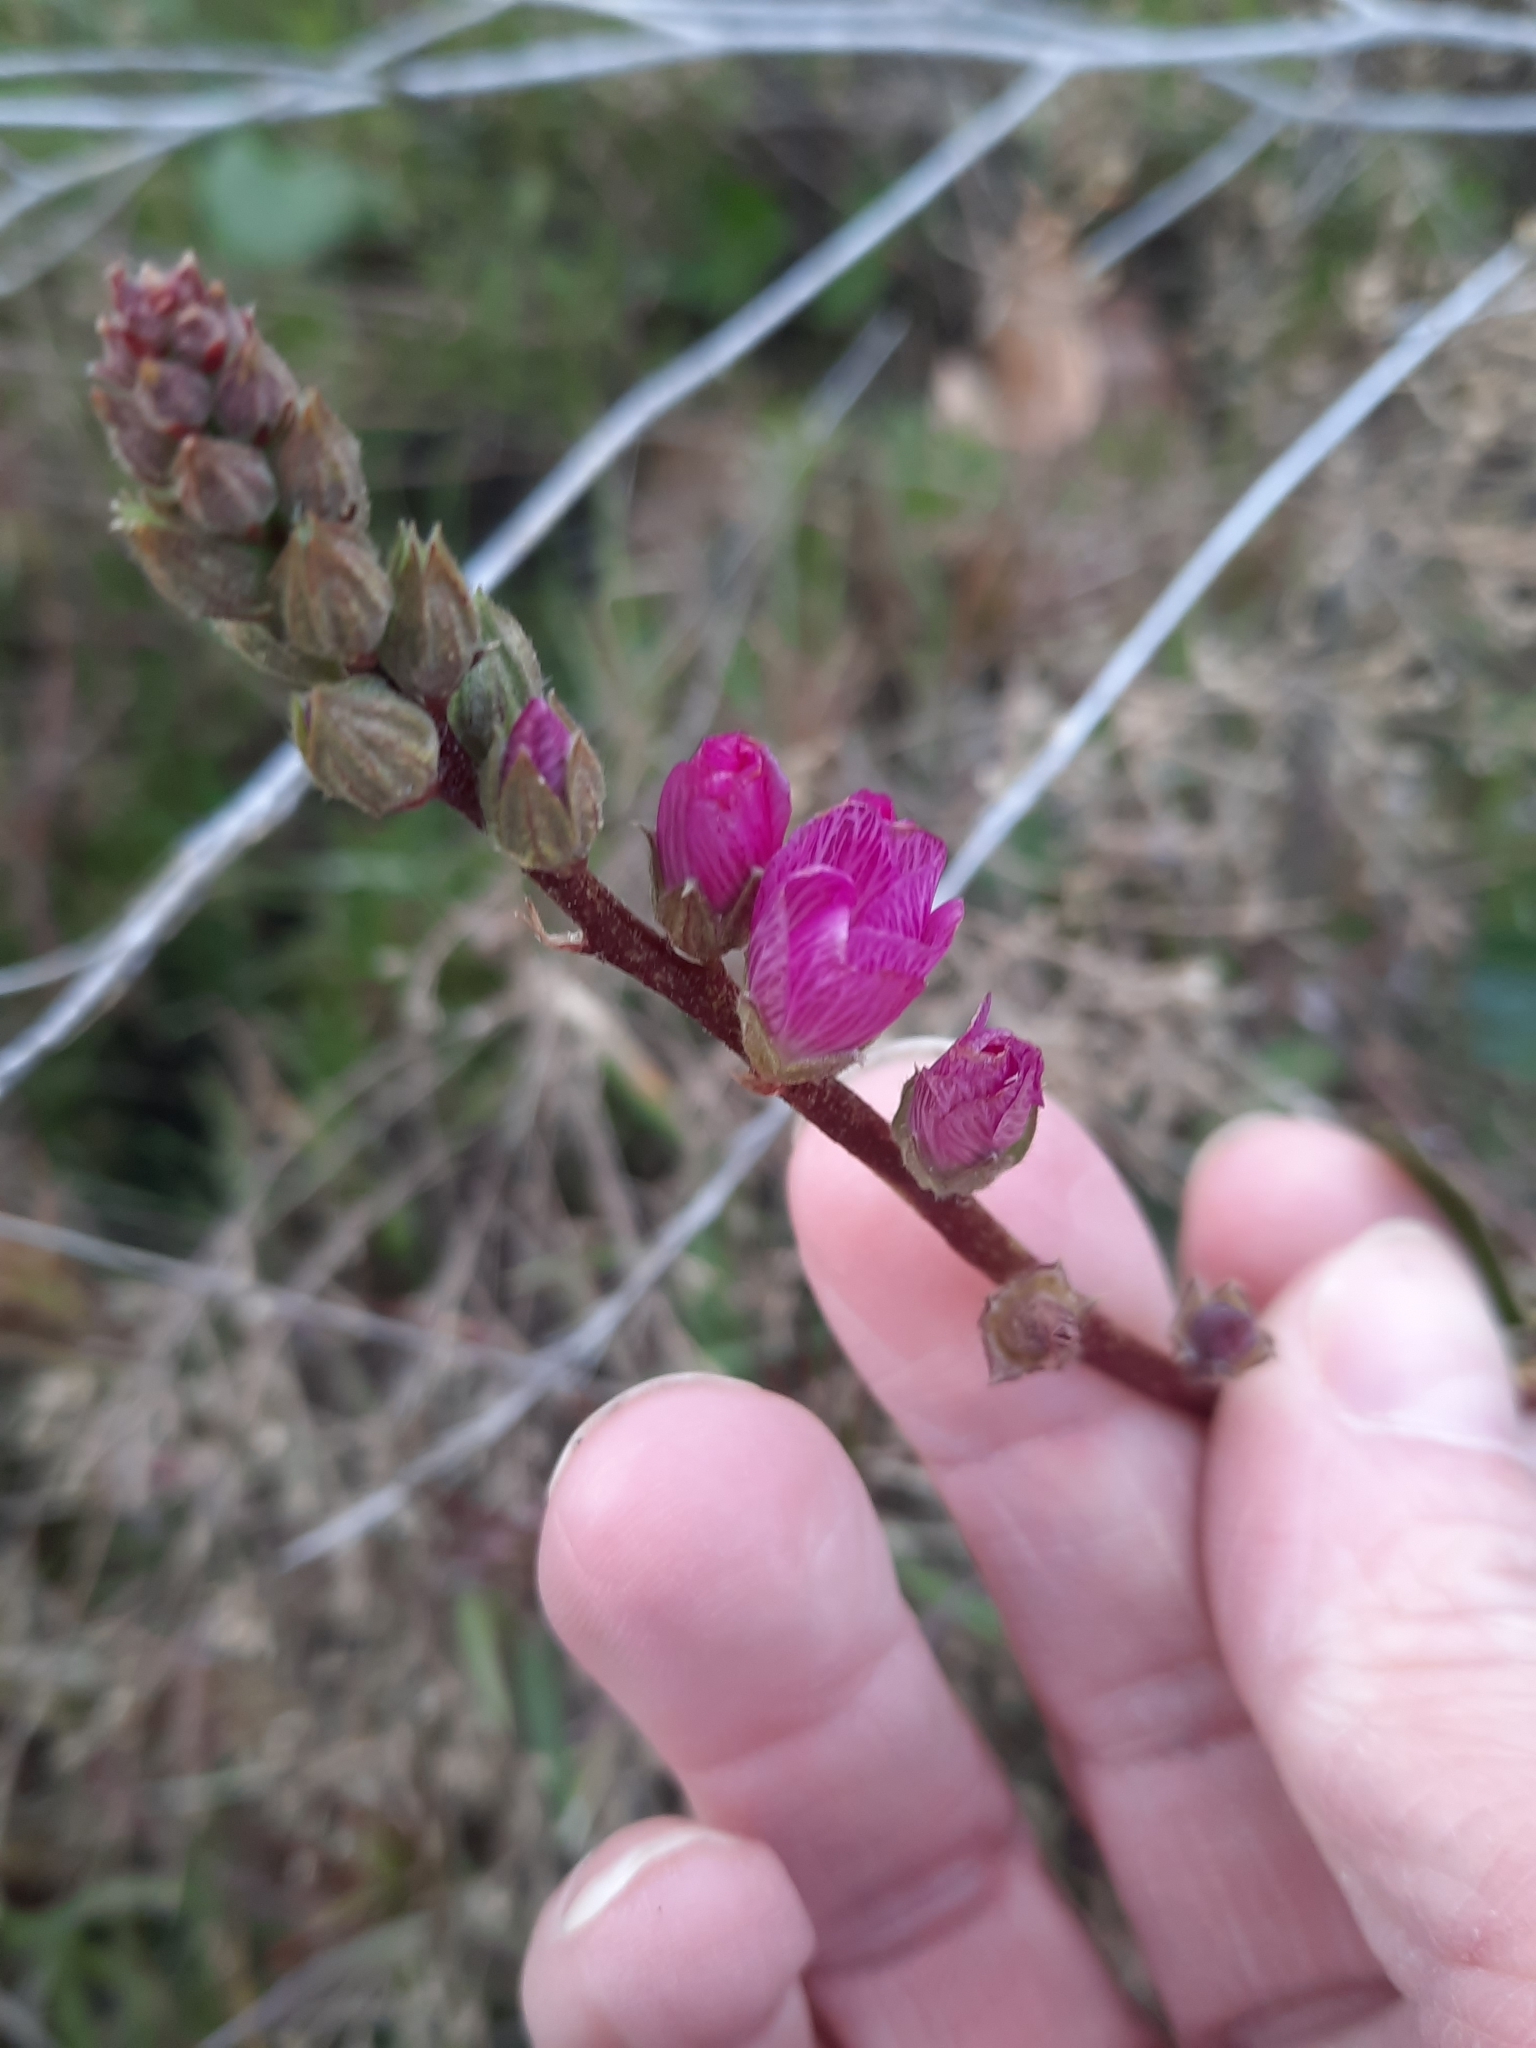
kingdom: Plantae
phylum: Tracheophyta
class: Magnoliopsida
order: Malvales
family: Malvaceae
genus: Sidalcea
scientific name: Sidalcea sparsifolia
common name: Southern checkerbloom
